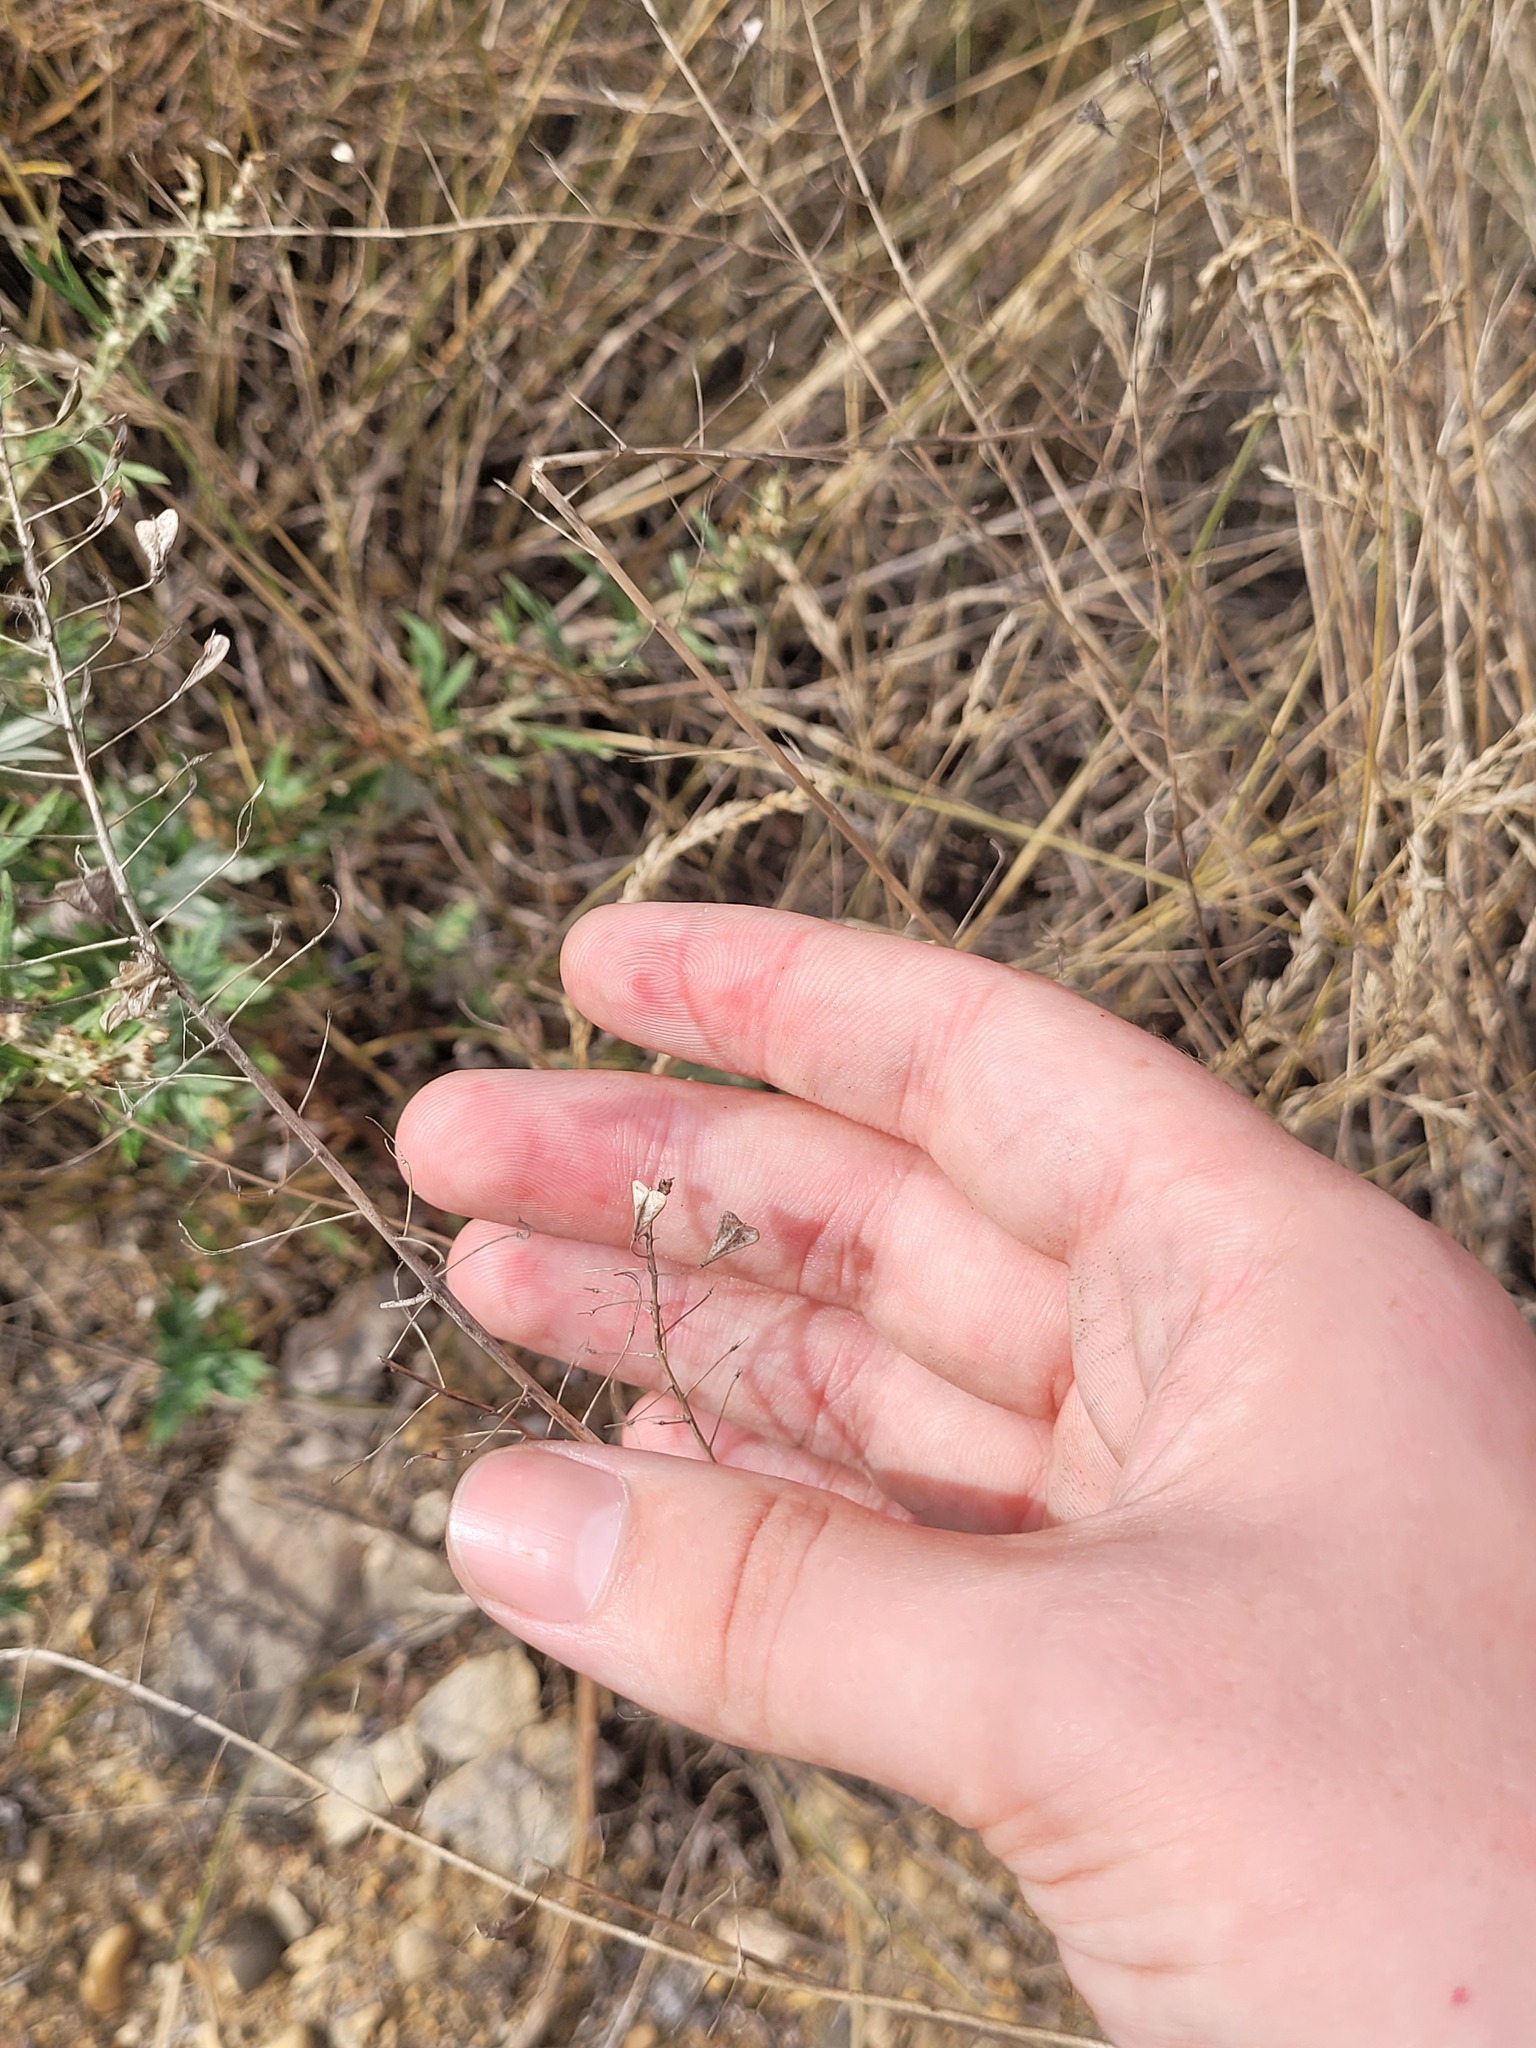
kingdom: Plantae
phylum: Tracheophyta
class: Magnoliopsida
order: Brassicales
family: Brassicaceae
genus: Capsella
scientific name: Capsella bursa-pastoris
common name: Shepherd's purse
